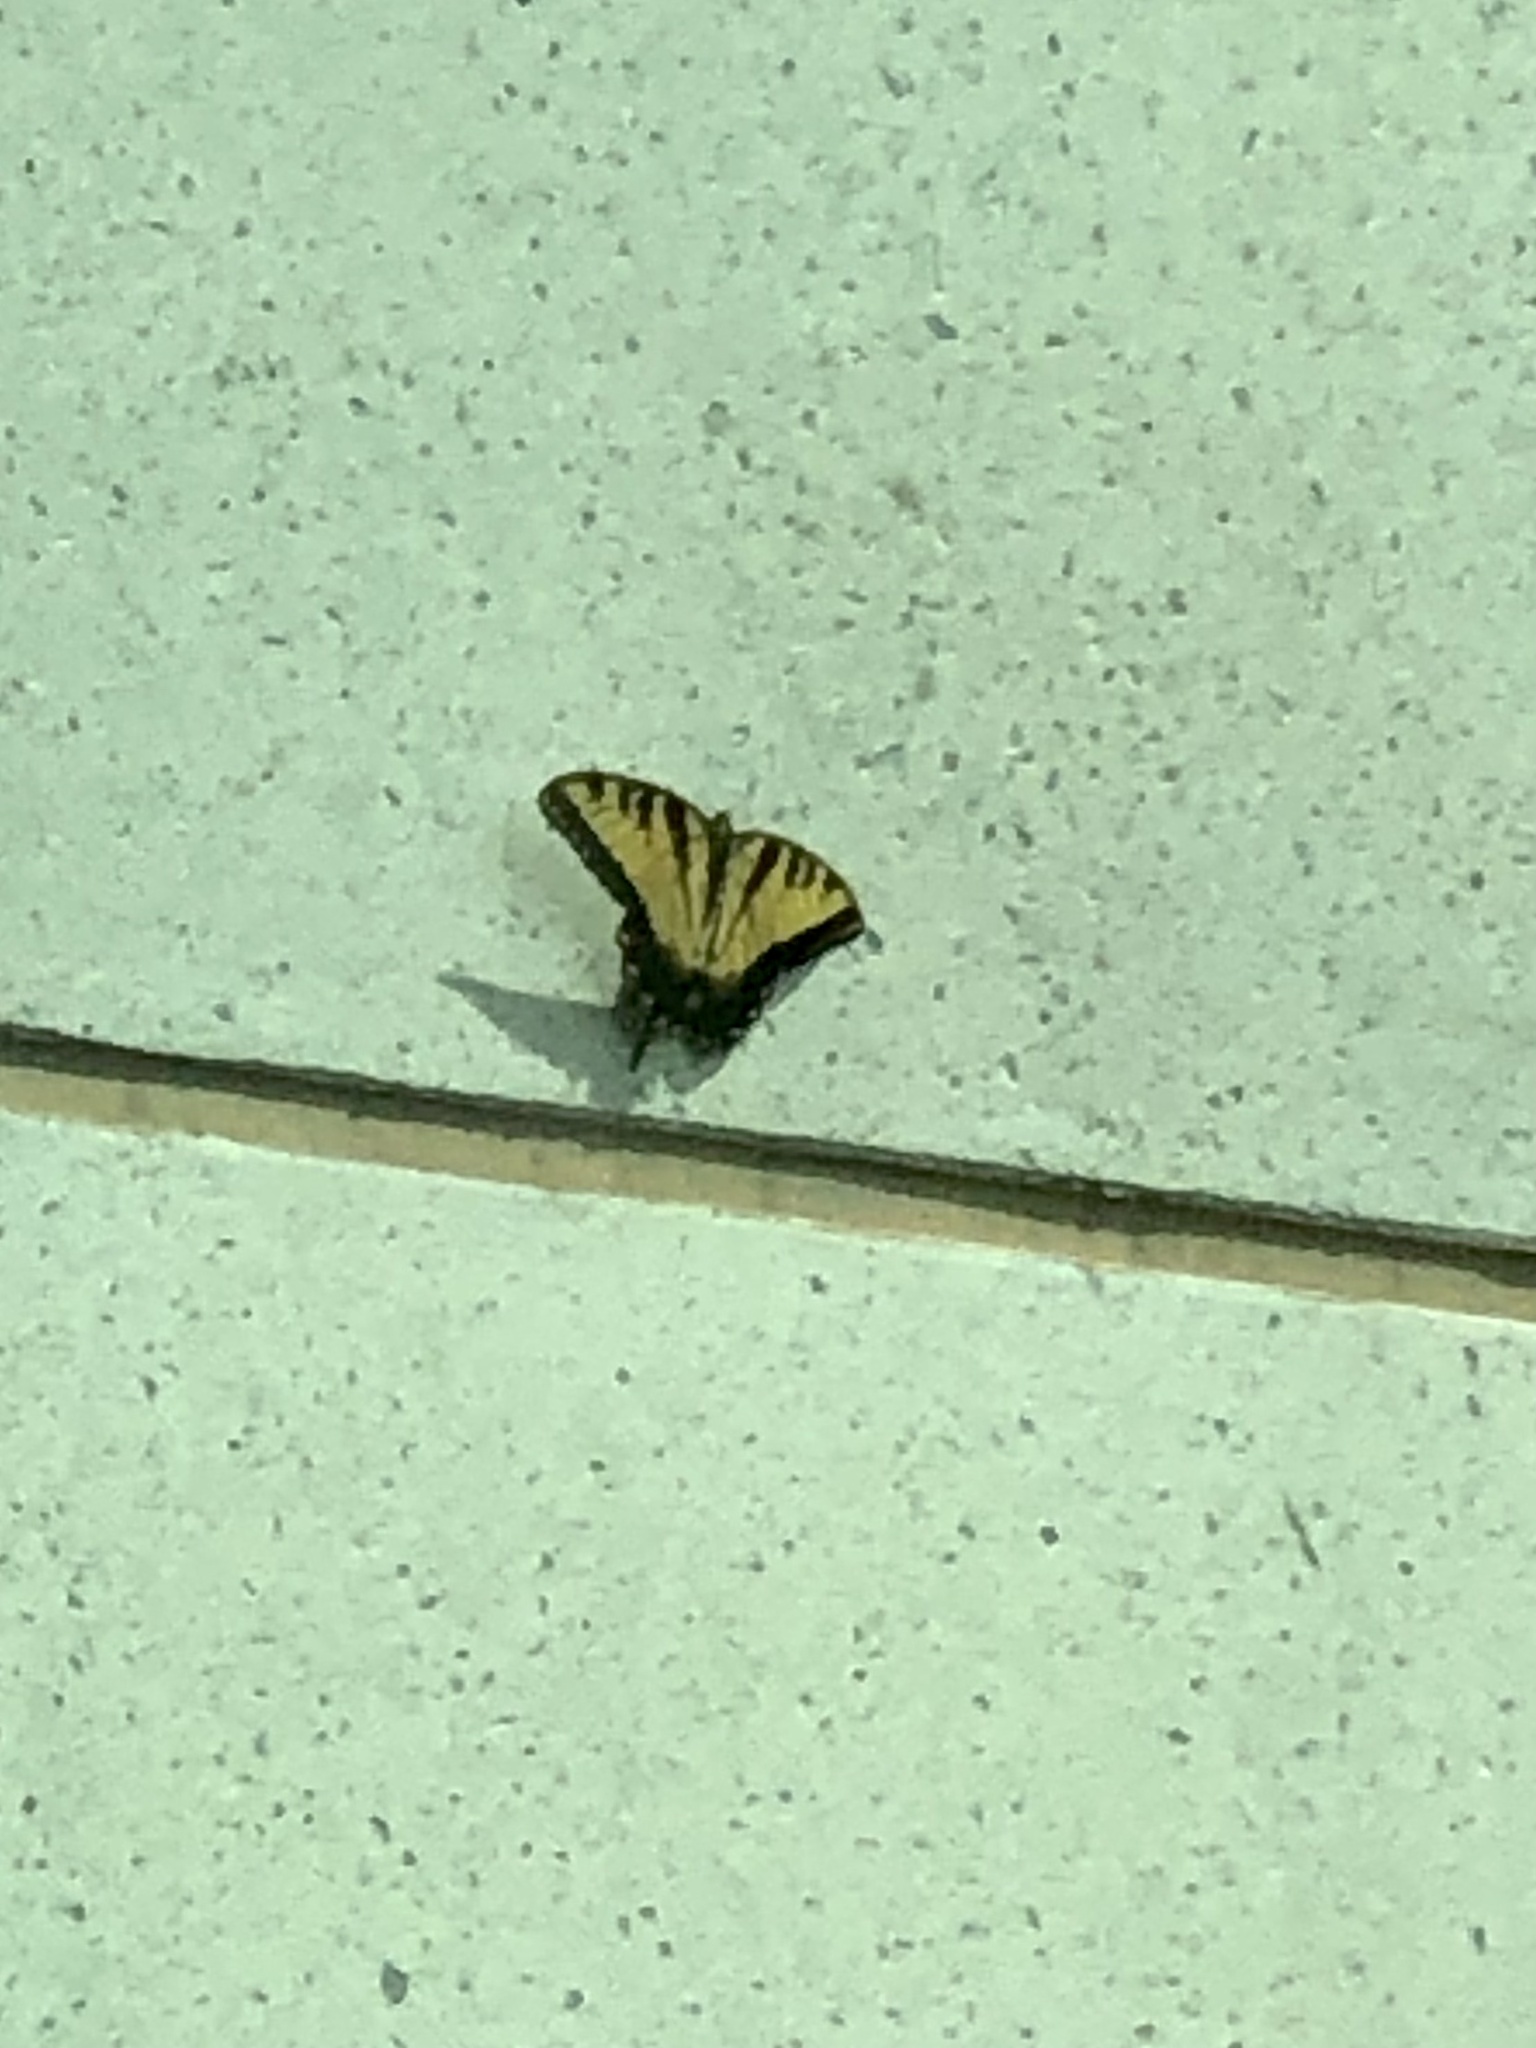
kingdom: Animalia
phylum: Arthropoda
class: Insecta
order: Lepidoptera
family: Papilionidae
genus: Papilio
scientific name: Papilio glaucus
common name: Tiger swallowtail
